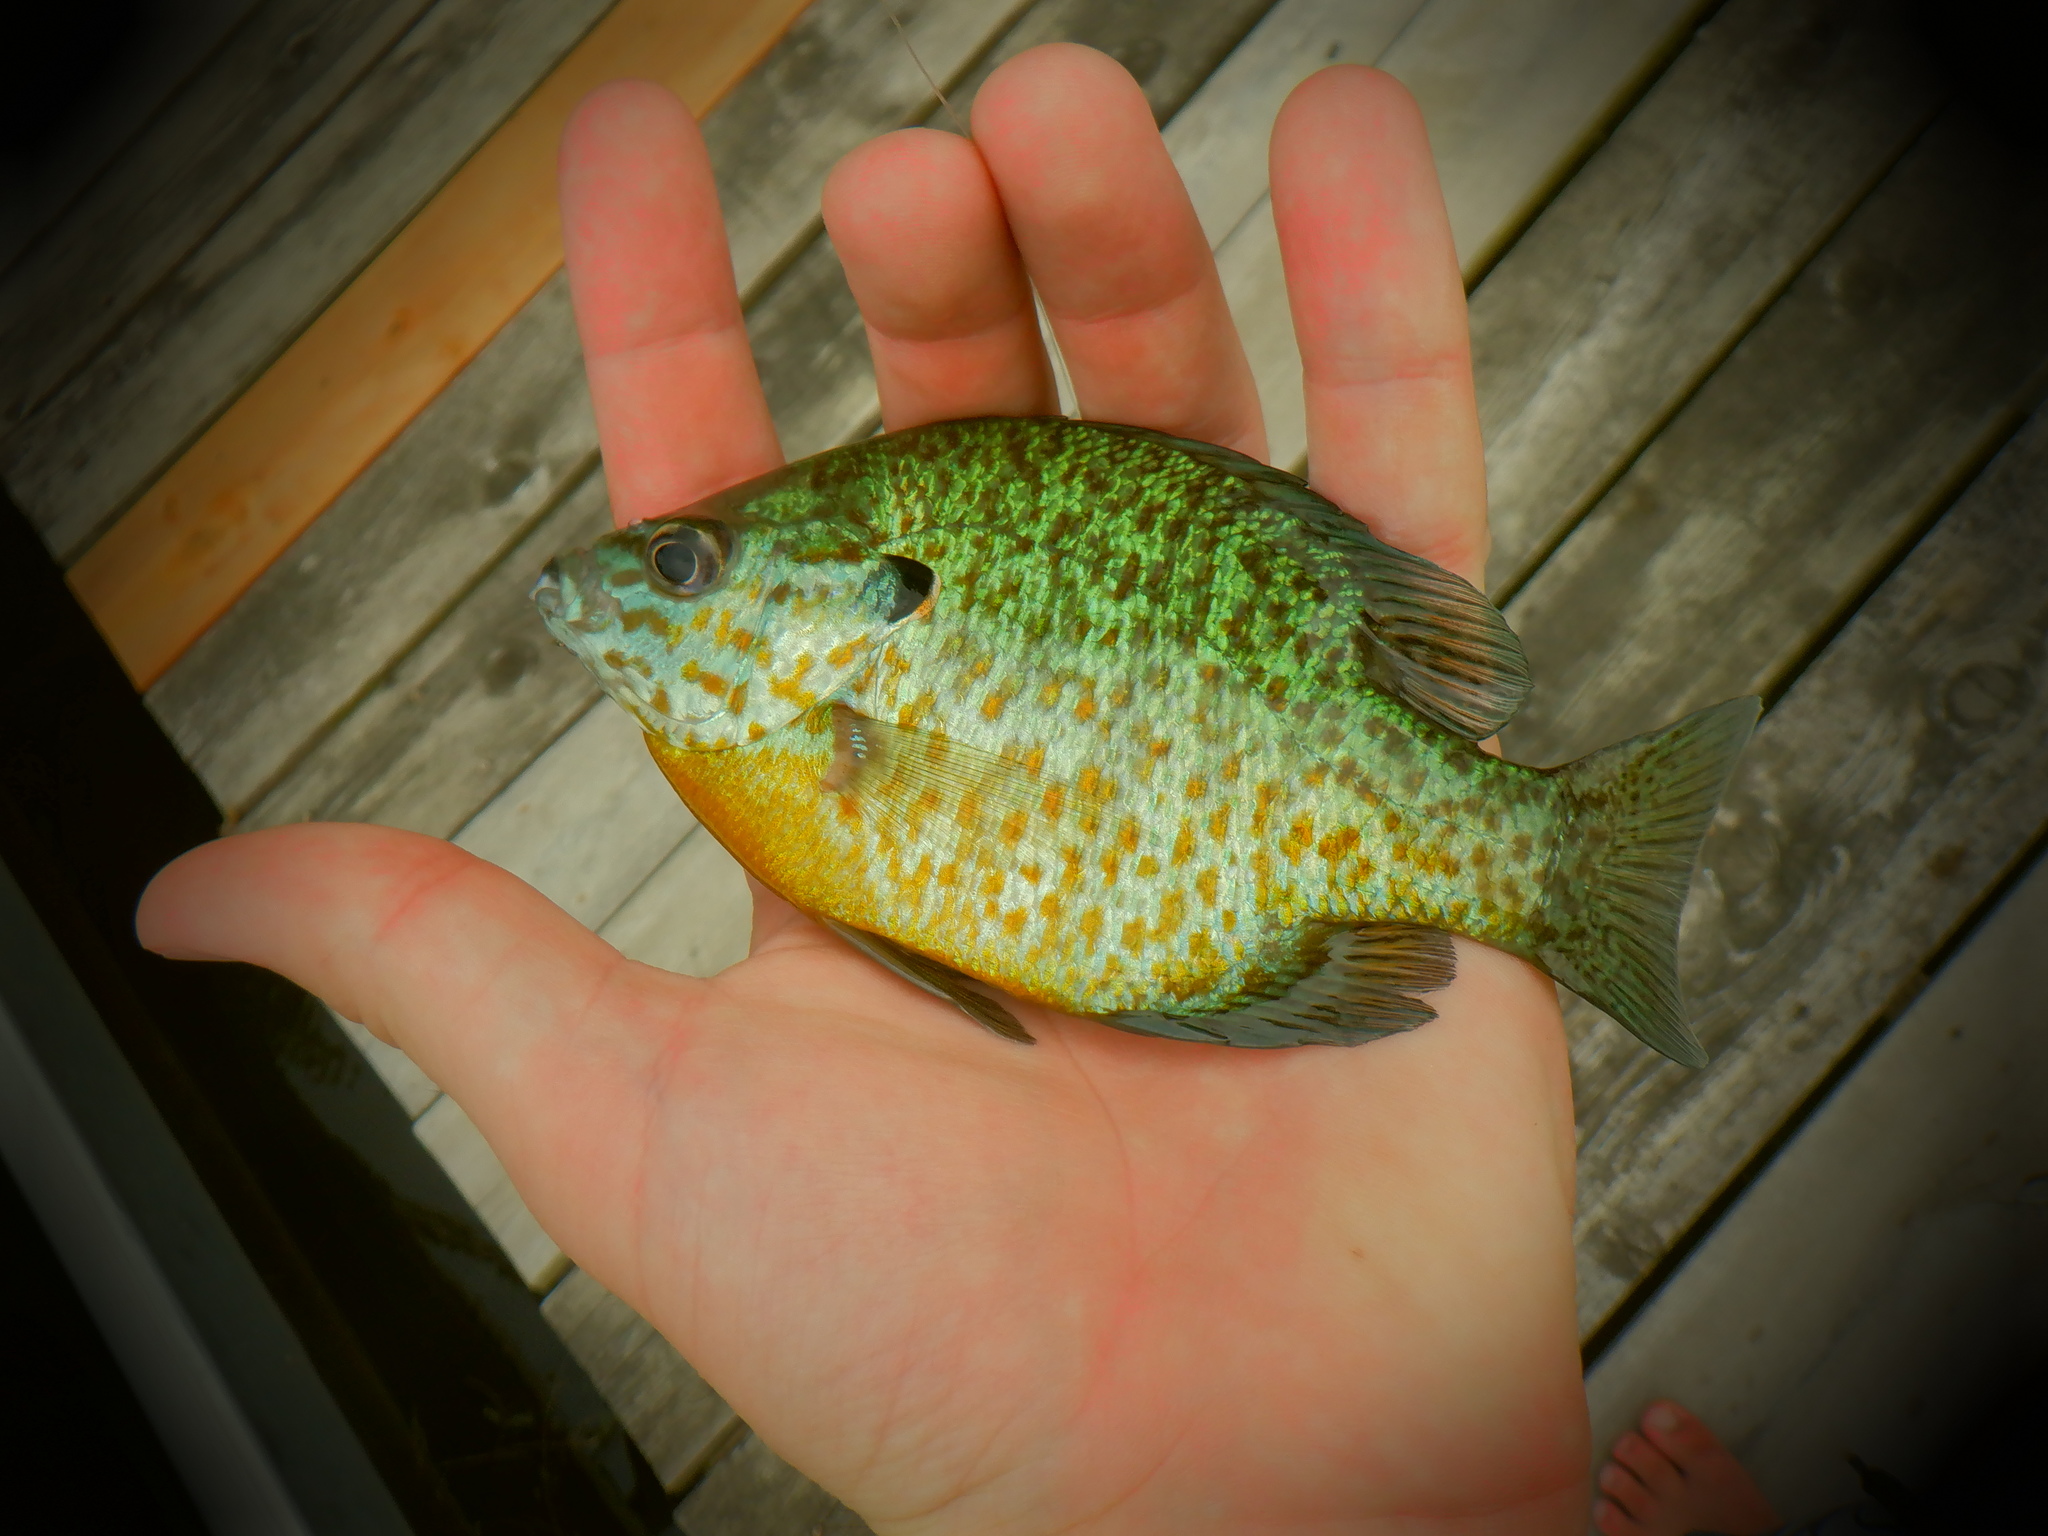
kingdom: Animalia
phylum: Chordata
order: Perciformes
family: Centrarchidae
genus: Lepomis
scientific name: Lepomis gibbosus
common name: Pumpkinseed
